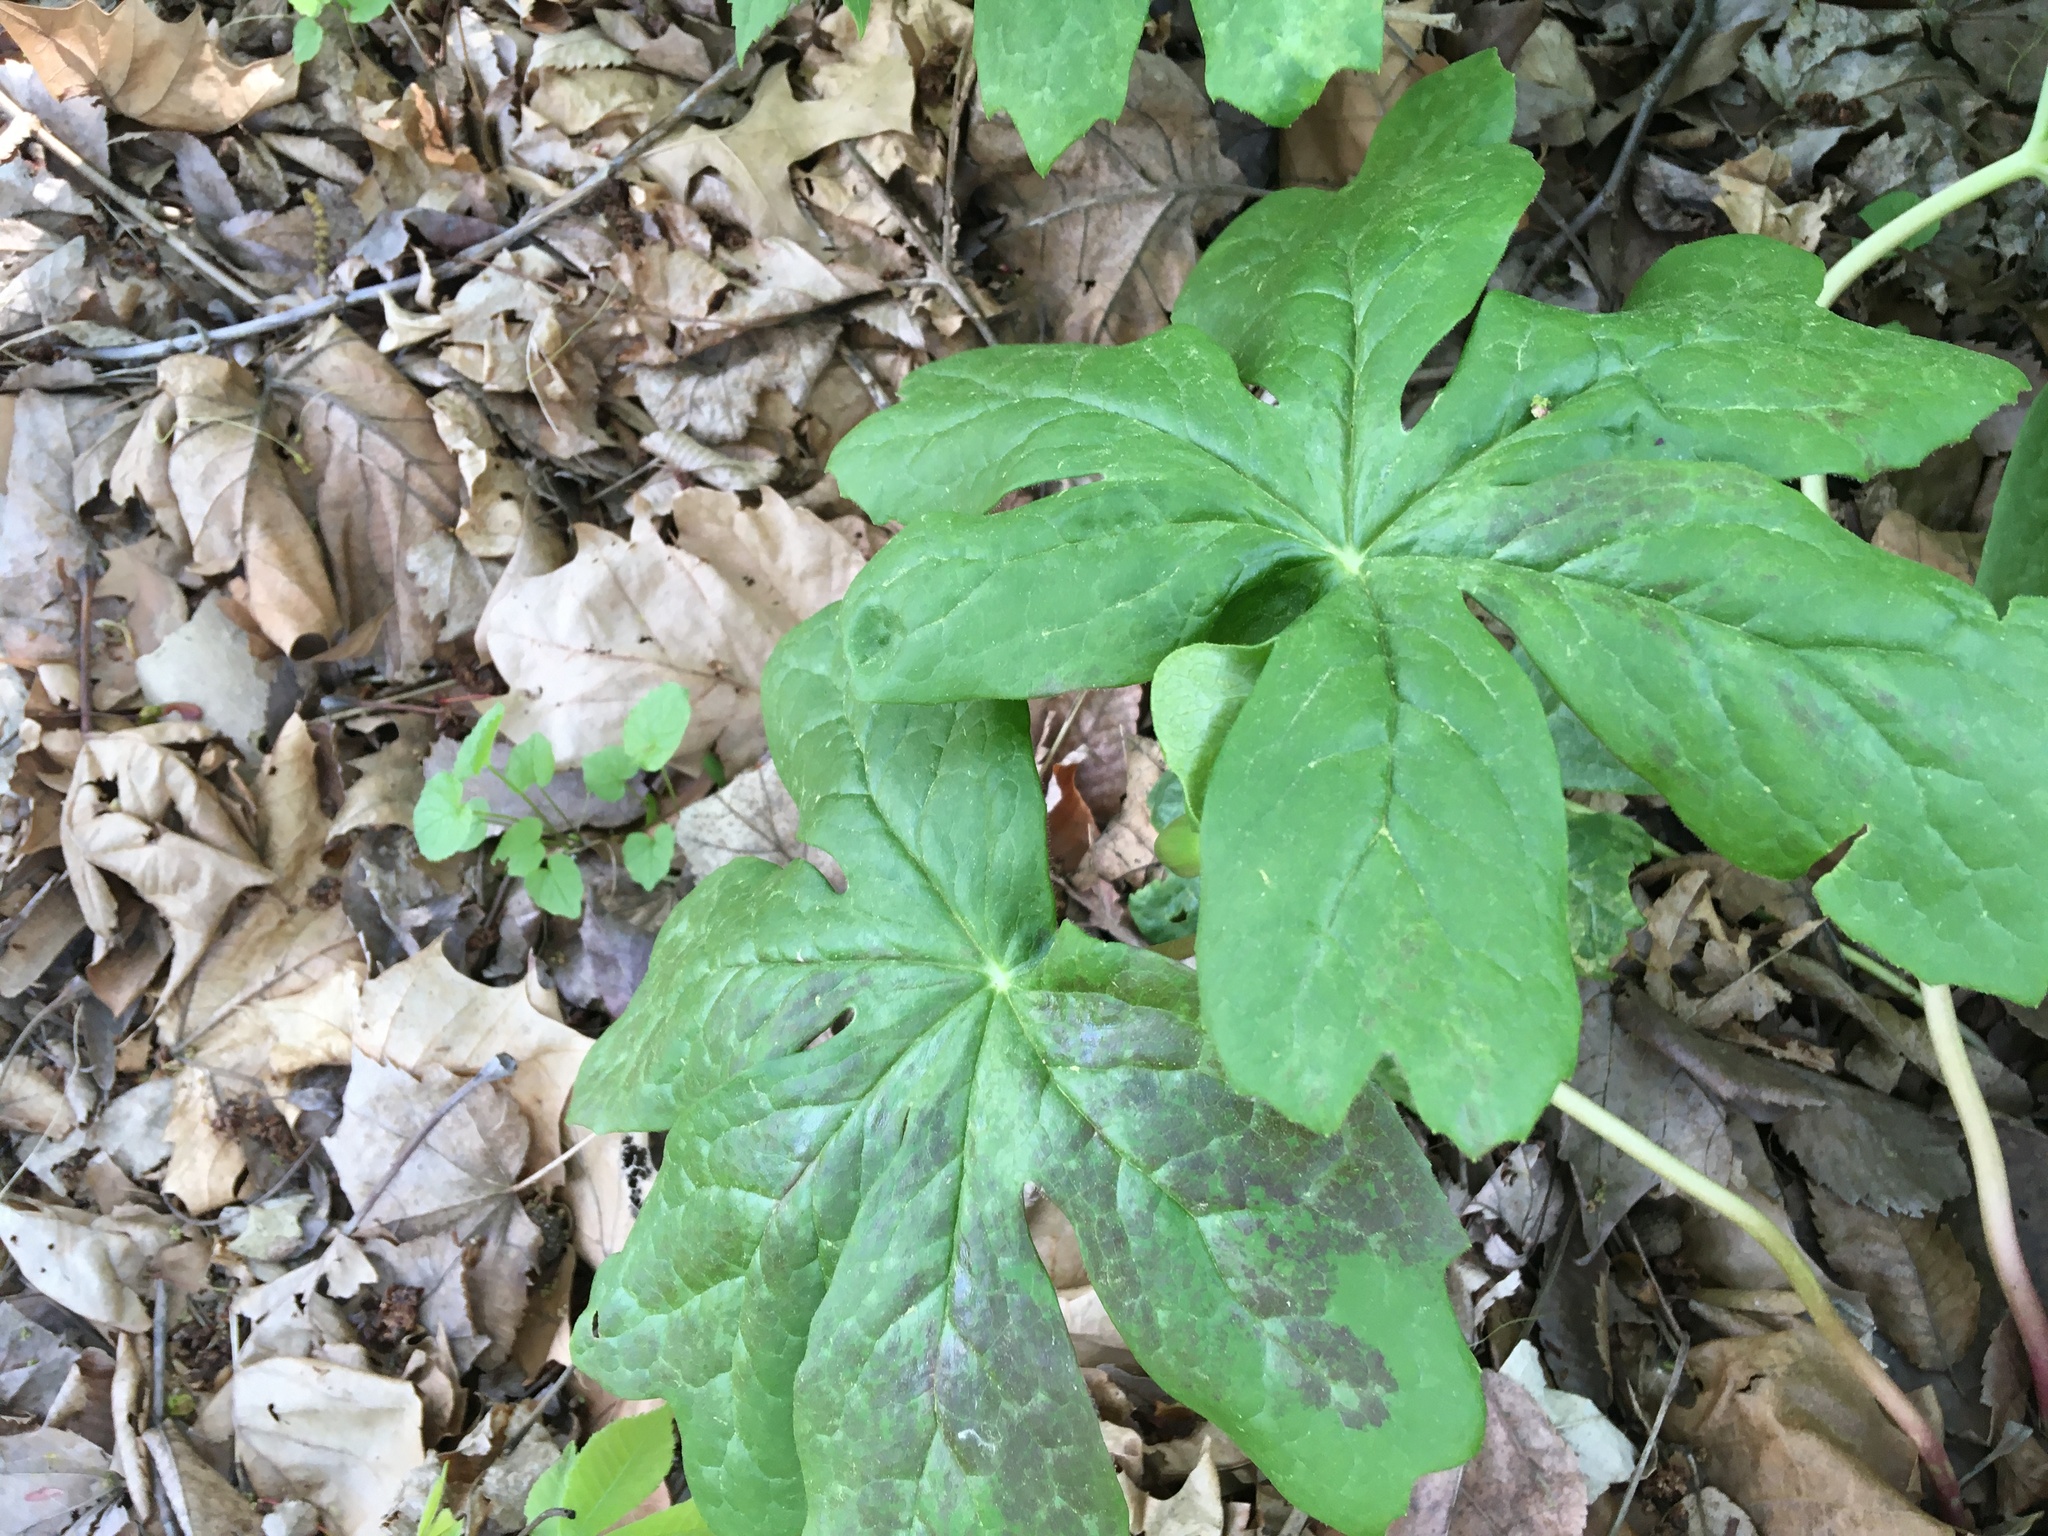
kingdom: Plantae
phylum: Tracheophyta
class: Magnoliopsida
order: Ranunculales
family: Berberidaceae
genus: Podophyllum
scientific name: Podophyllum peltatum
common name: Wild mandrake
